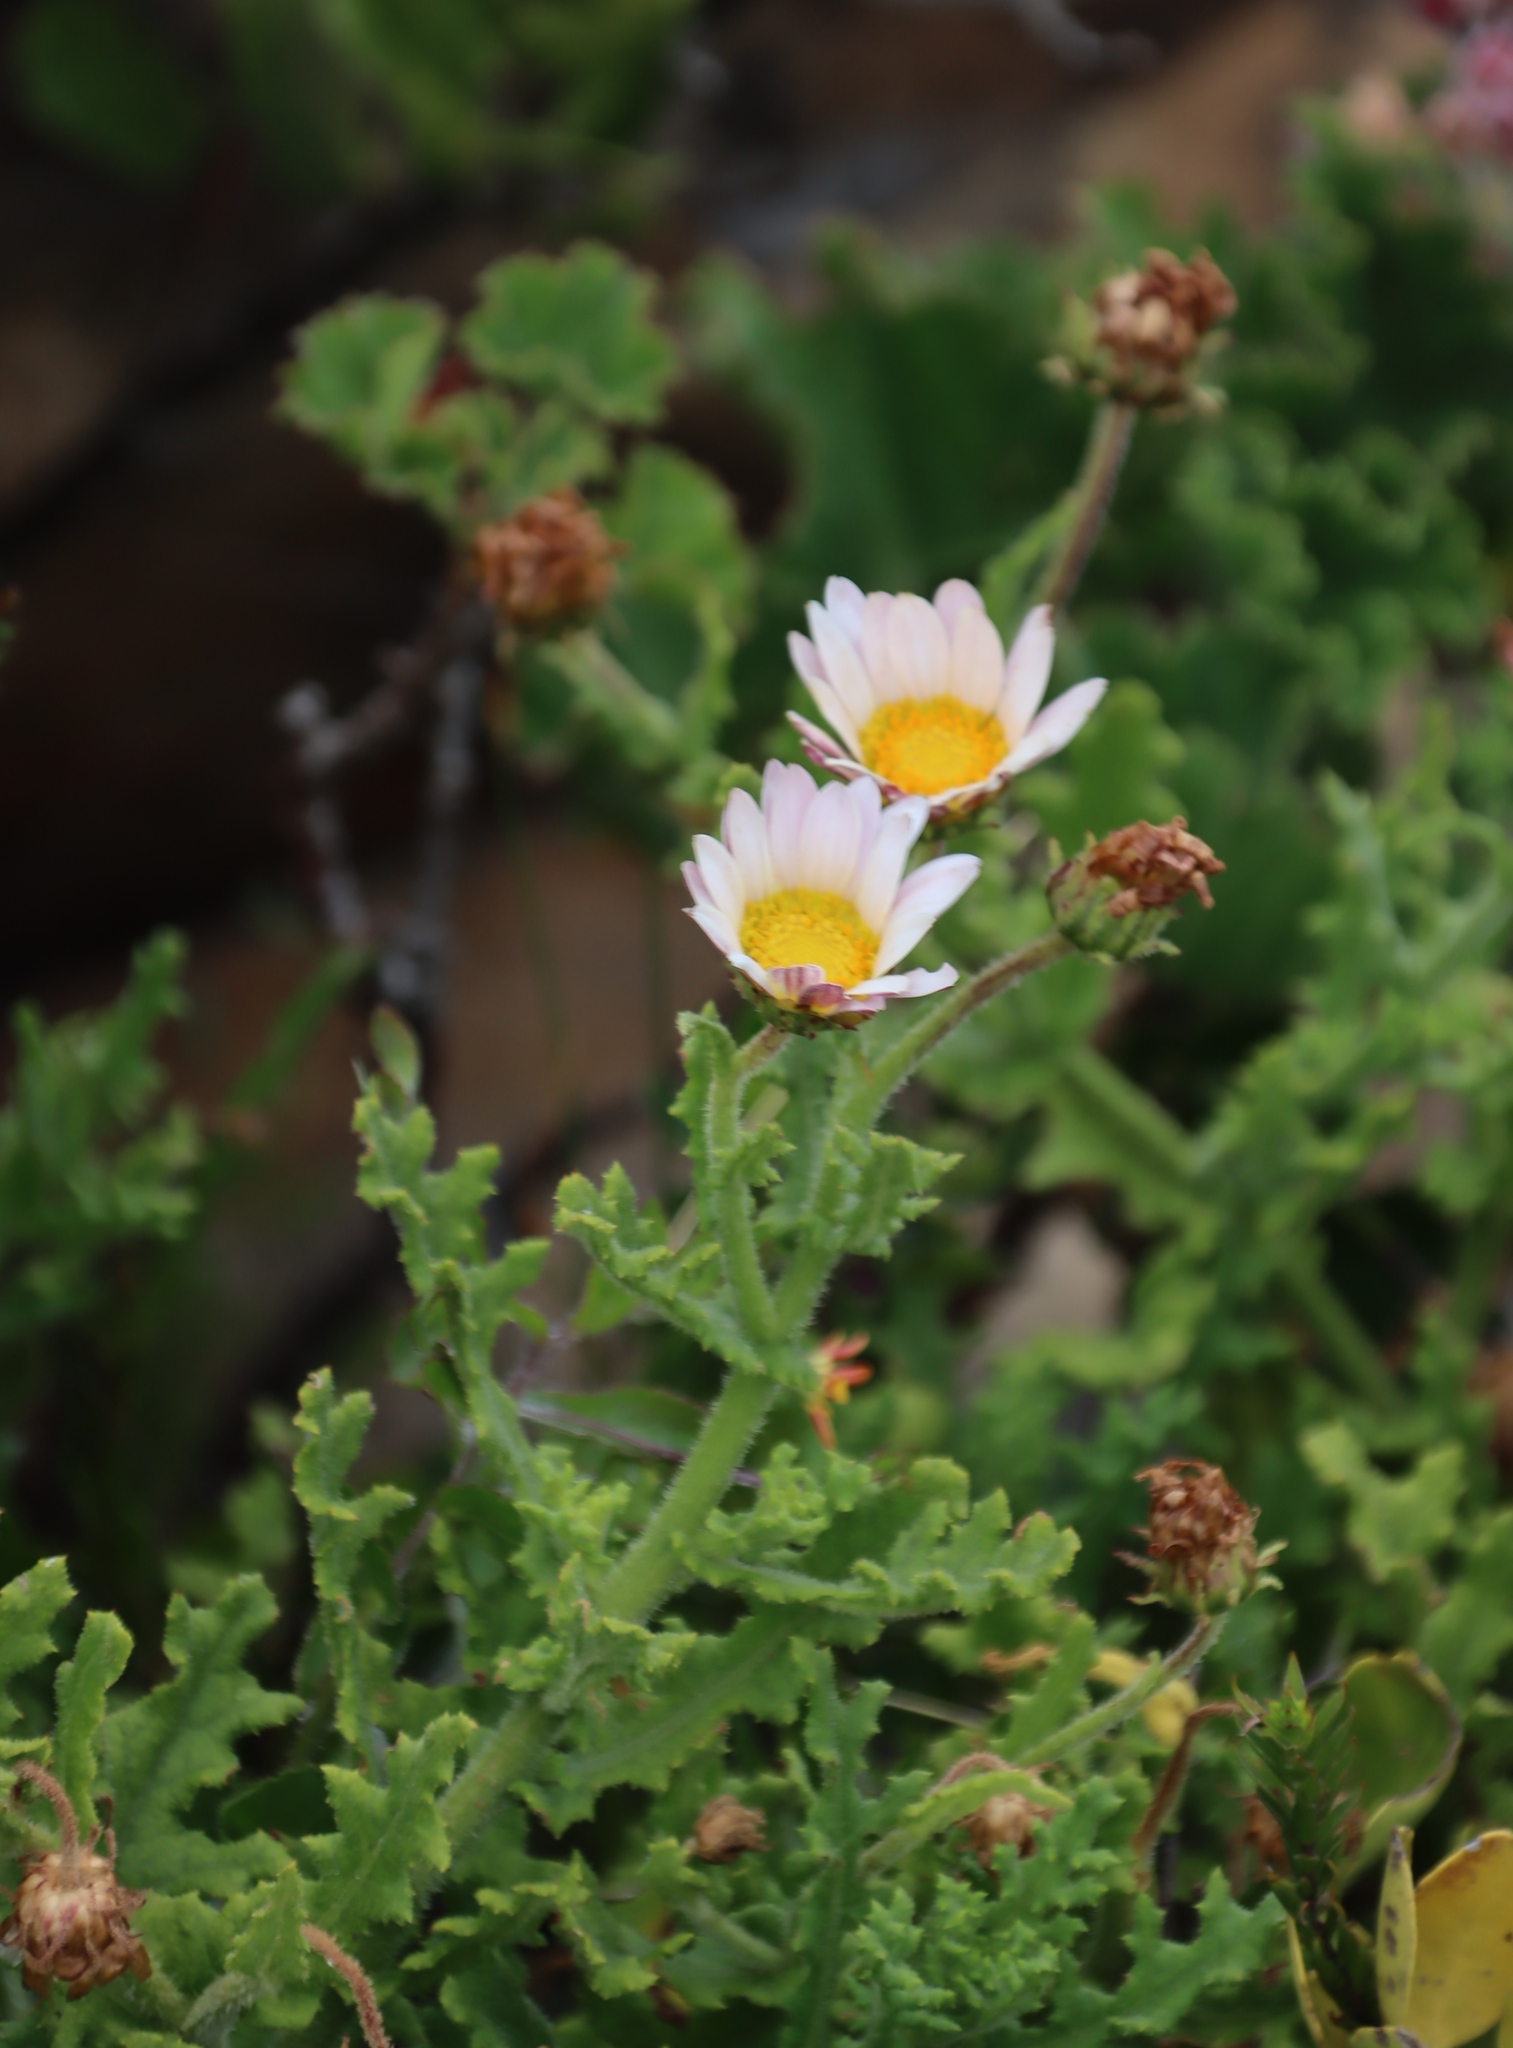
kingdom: Plantae
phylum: Tracheophyta
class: Magnoliopsida
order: Asterales
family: Asteraceae
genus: Arctotis
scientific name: Arctotis aspera
